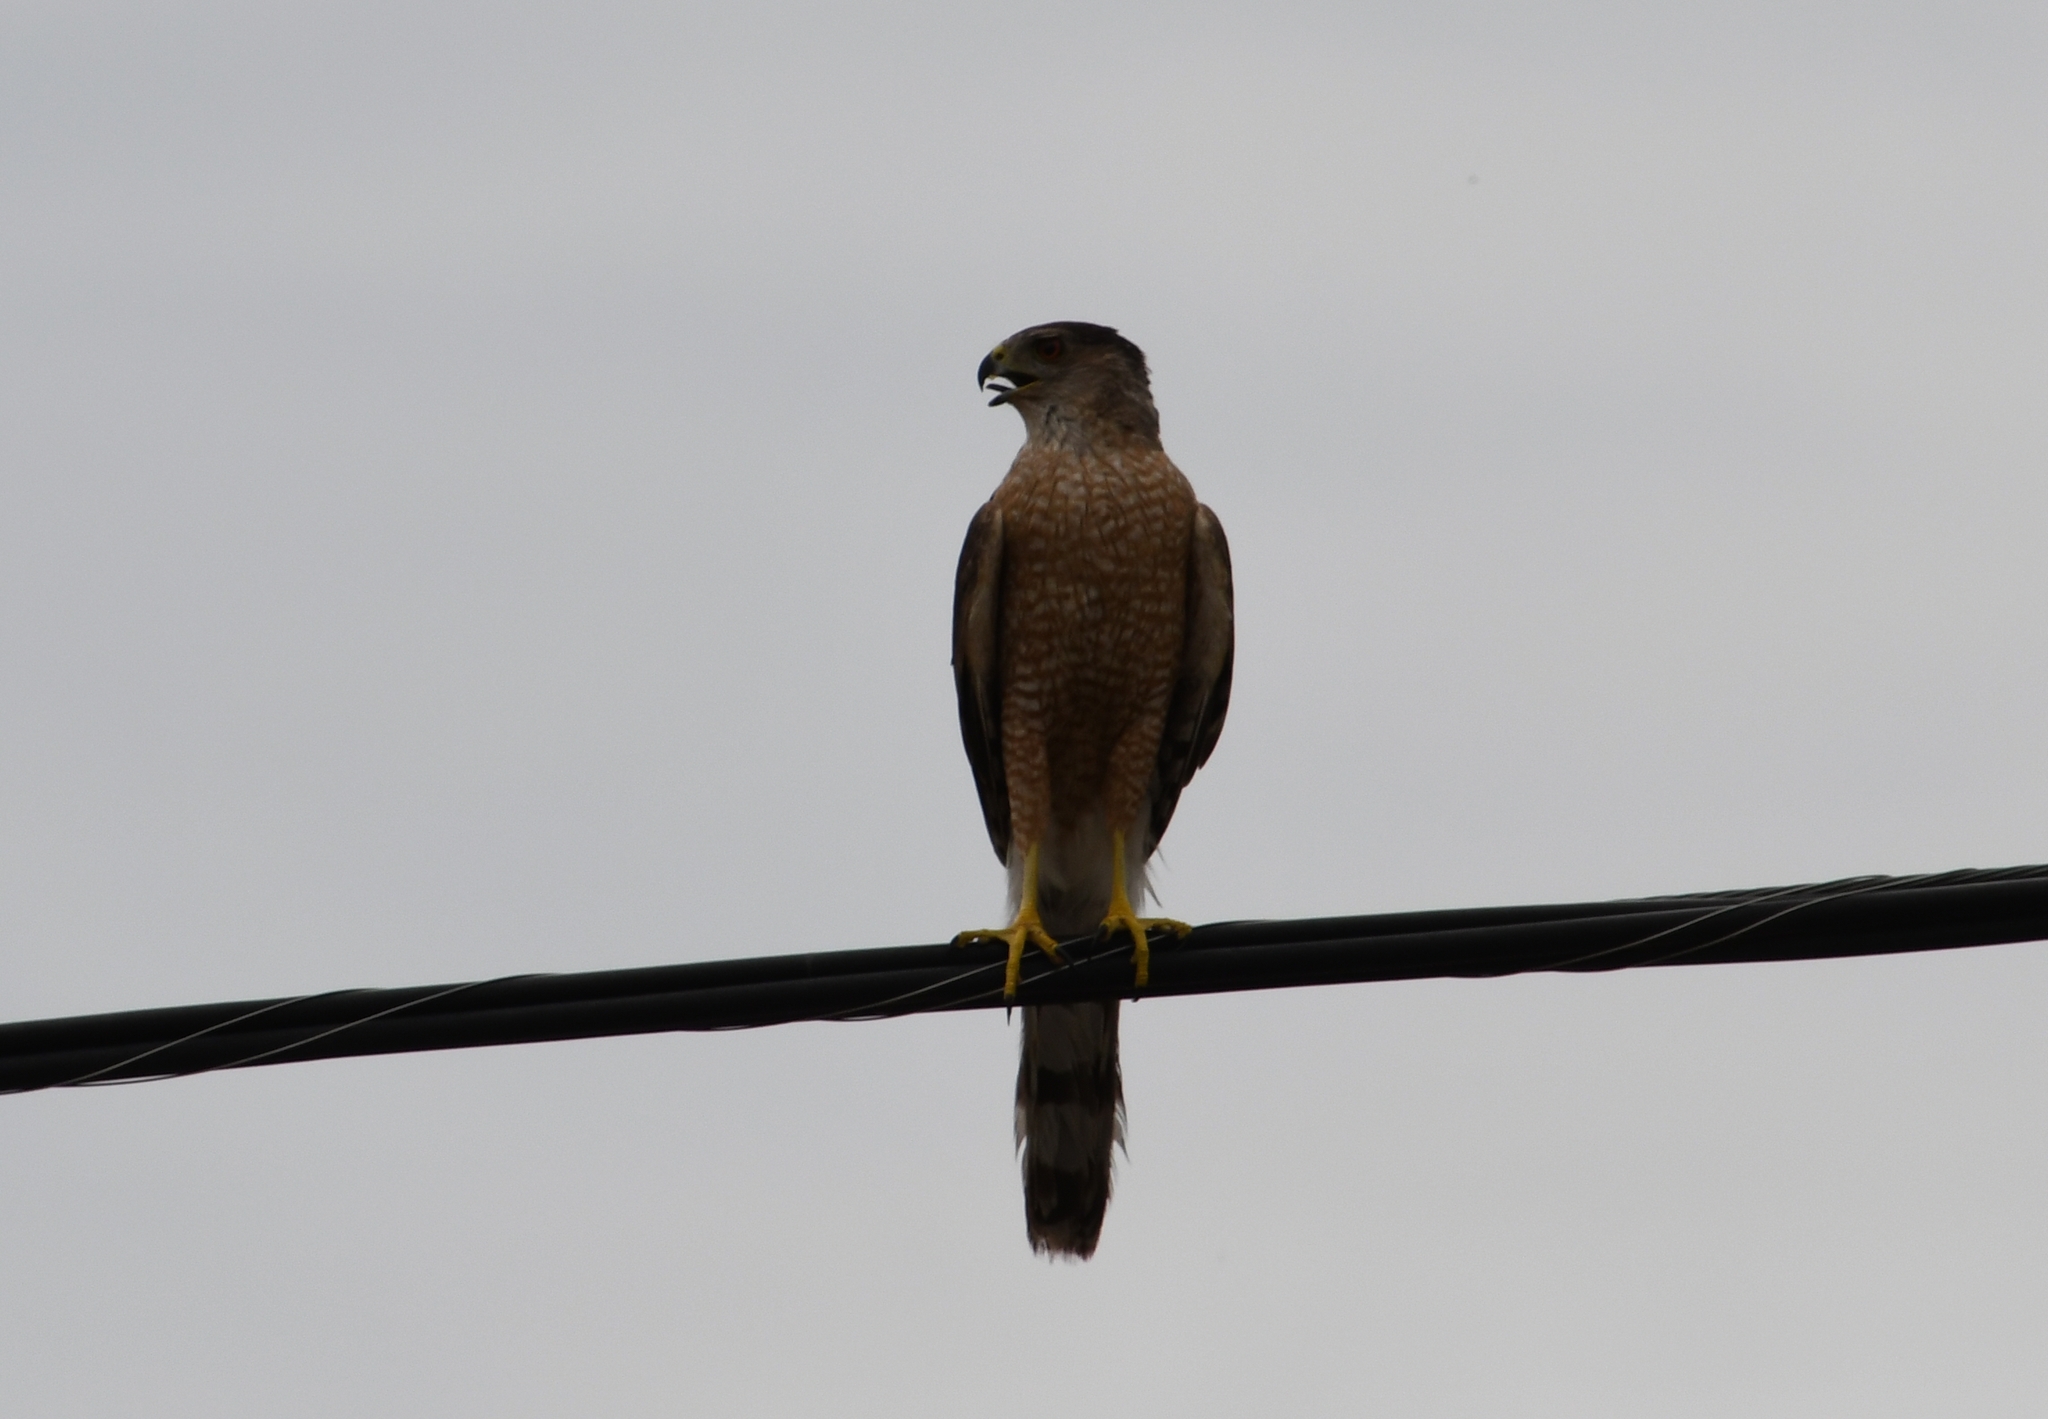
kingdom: Animalia
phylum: Chordata
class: Aves
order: Accipitriformes
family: Accipitridae
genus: Accipiter
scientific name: Accipiter cooperii
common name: Cooper's hawk
